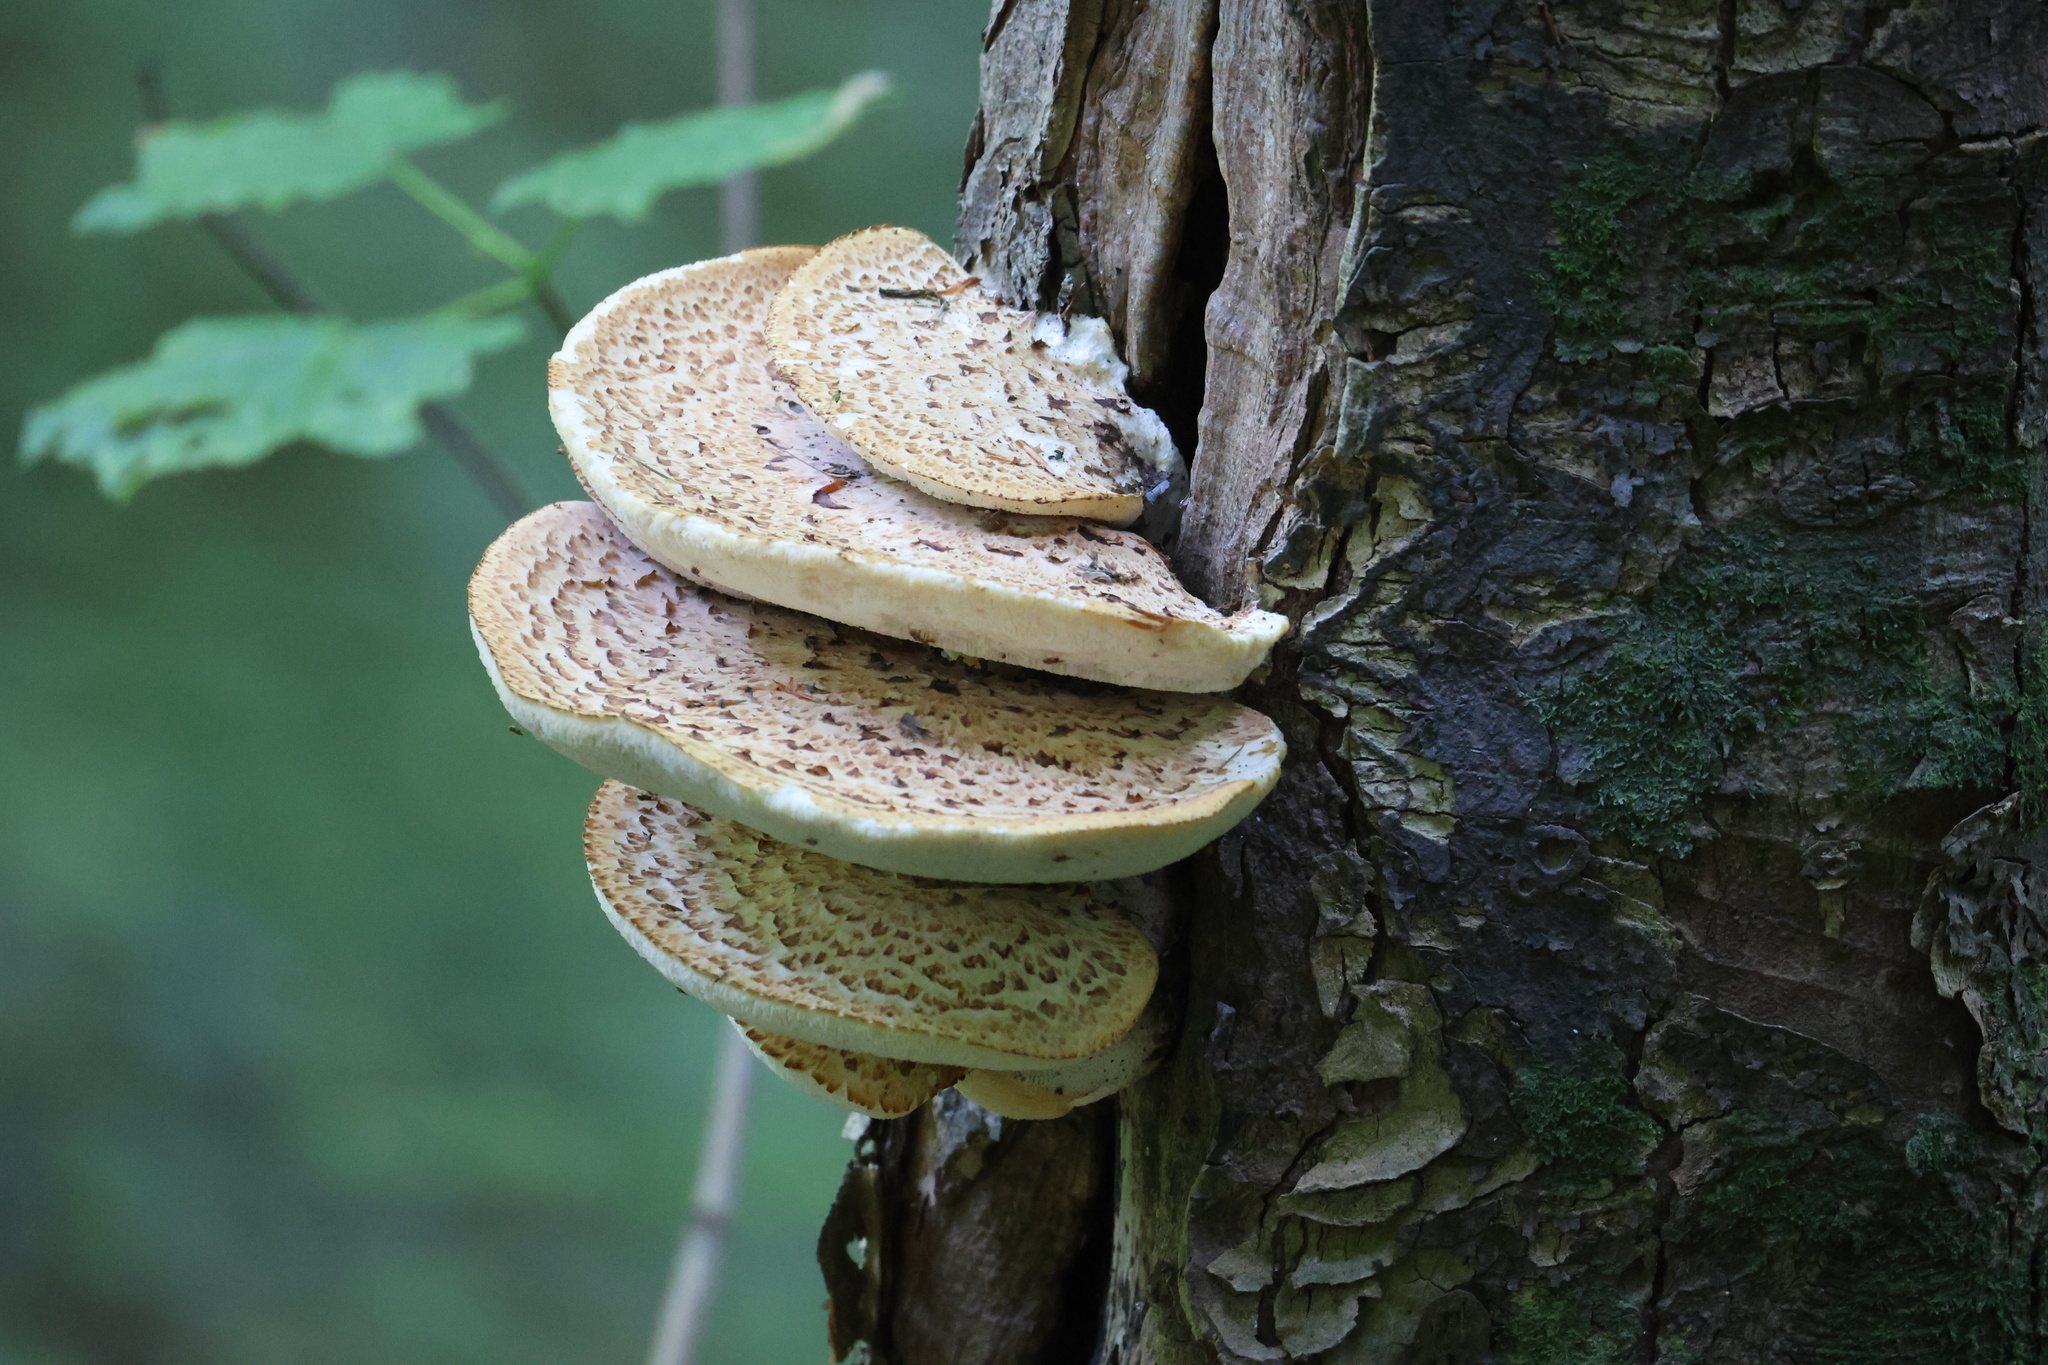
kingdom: Fungi
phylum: Basidiomycota
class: Agaricomycetes
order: Polyporales
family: Polyporaceae
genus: Cerioporus
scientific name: Cerioporus squamosus
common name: Dryad's saddle
